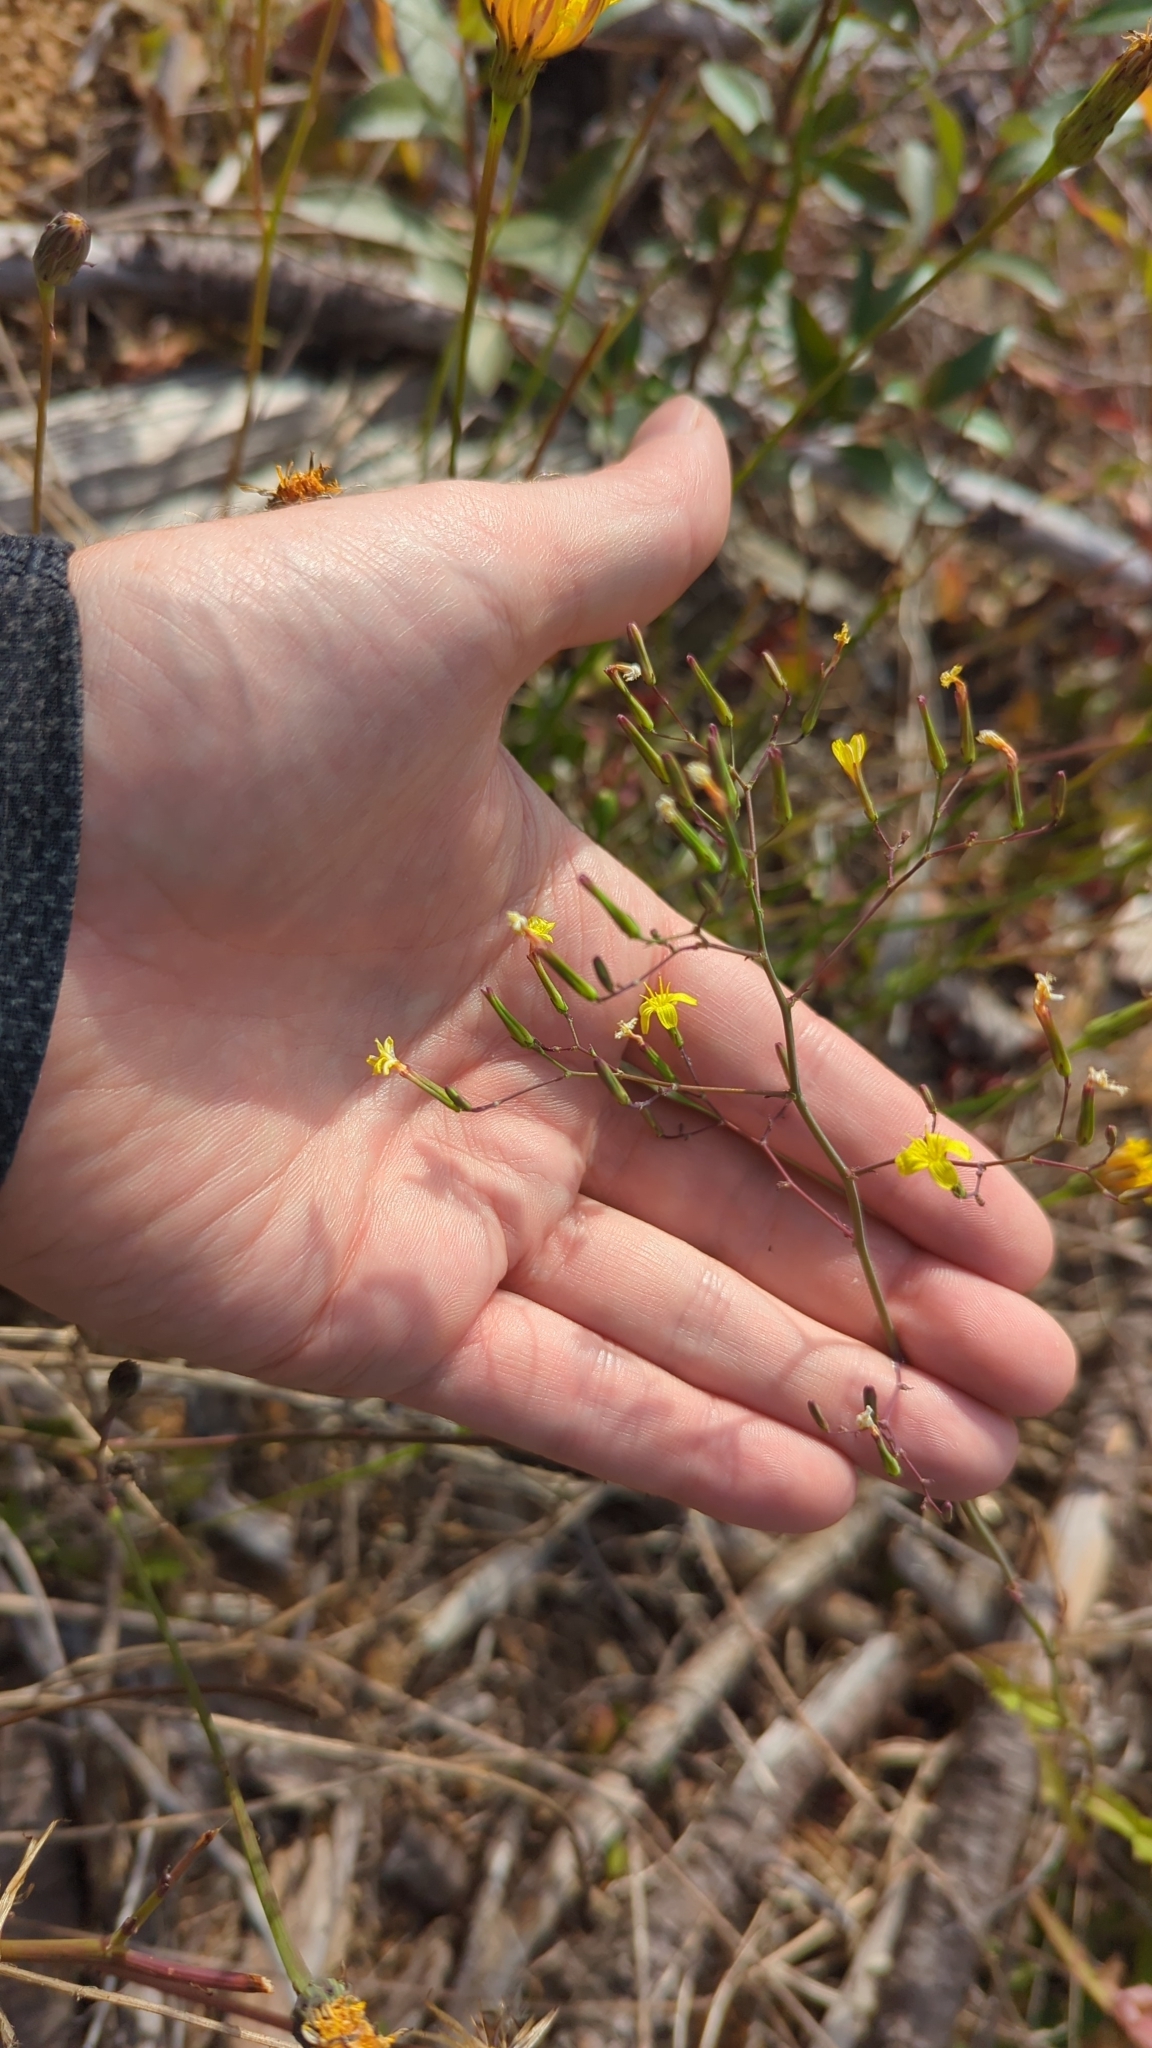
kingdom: Plantae
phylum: Tracheophyta
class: Magnoliopsida
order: Asterales
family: Asteraceae
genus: Mycelis
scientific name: Mycelis muralis
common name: Wall lettuce
